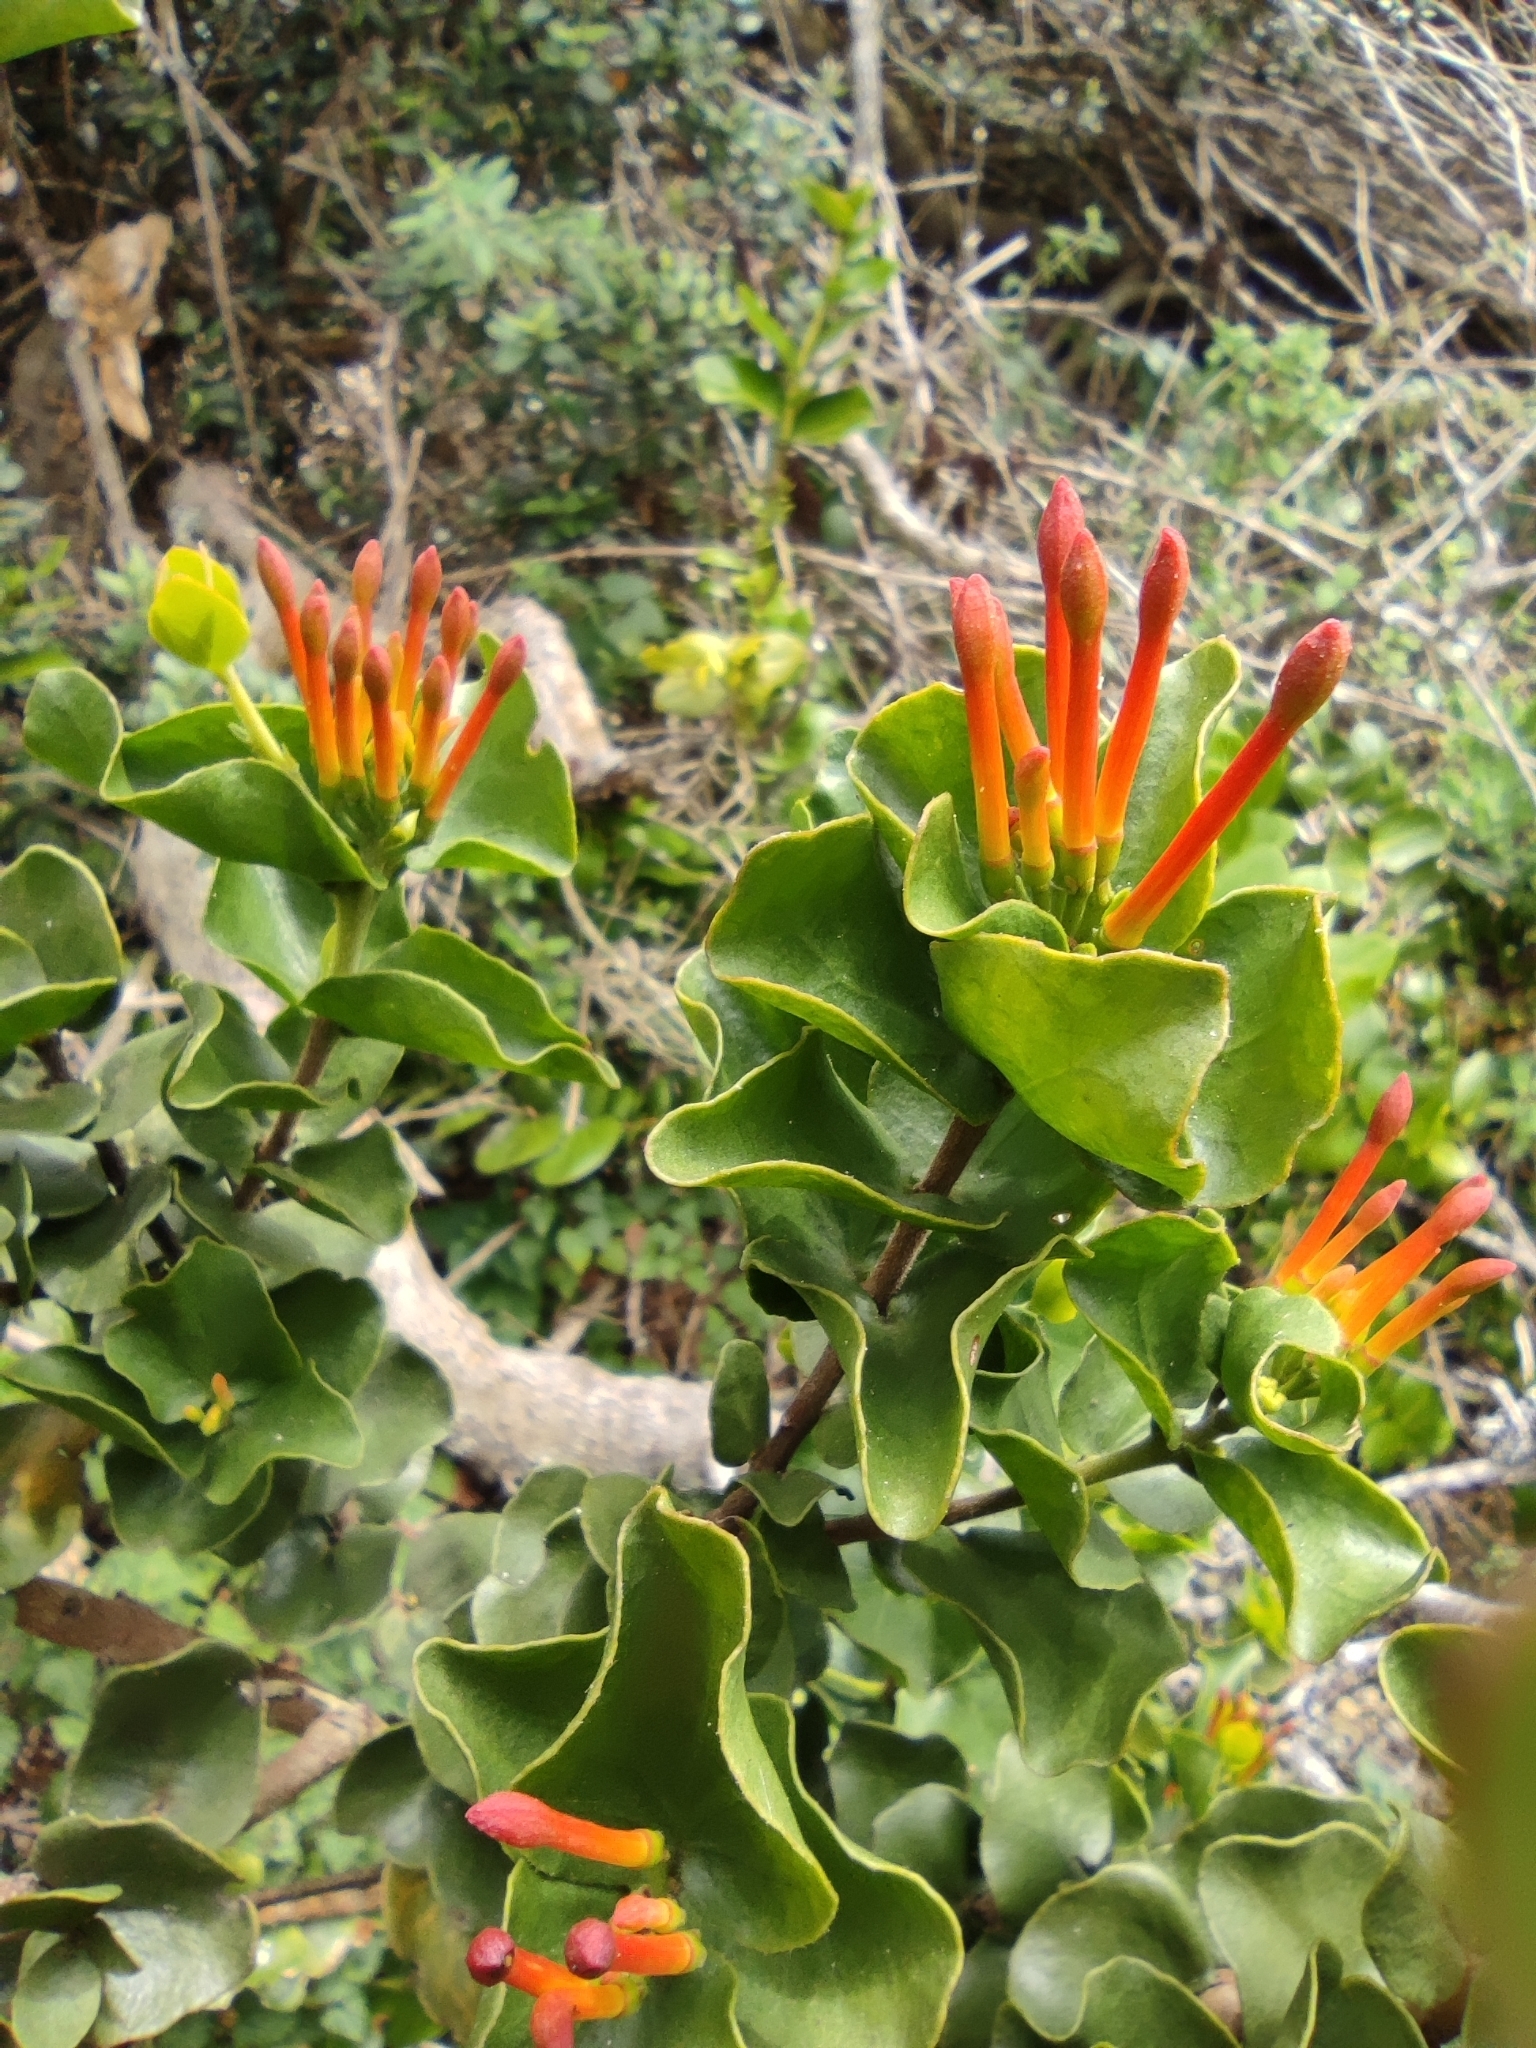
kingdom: Plantae
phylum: Tracheophyta
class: Magnoliopsida
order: Santalales
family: Loranthaceae
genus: Tristerix
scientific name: Tristerix corymbosus
